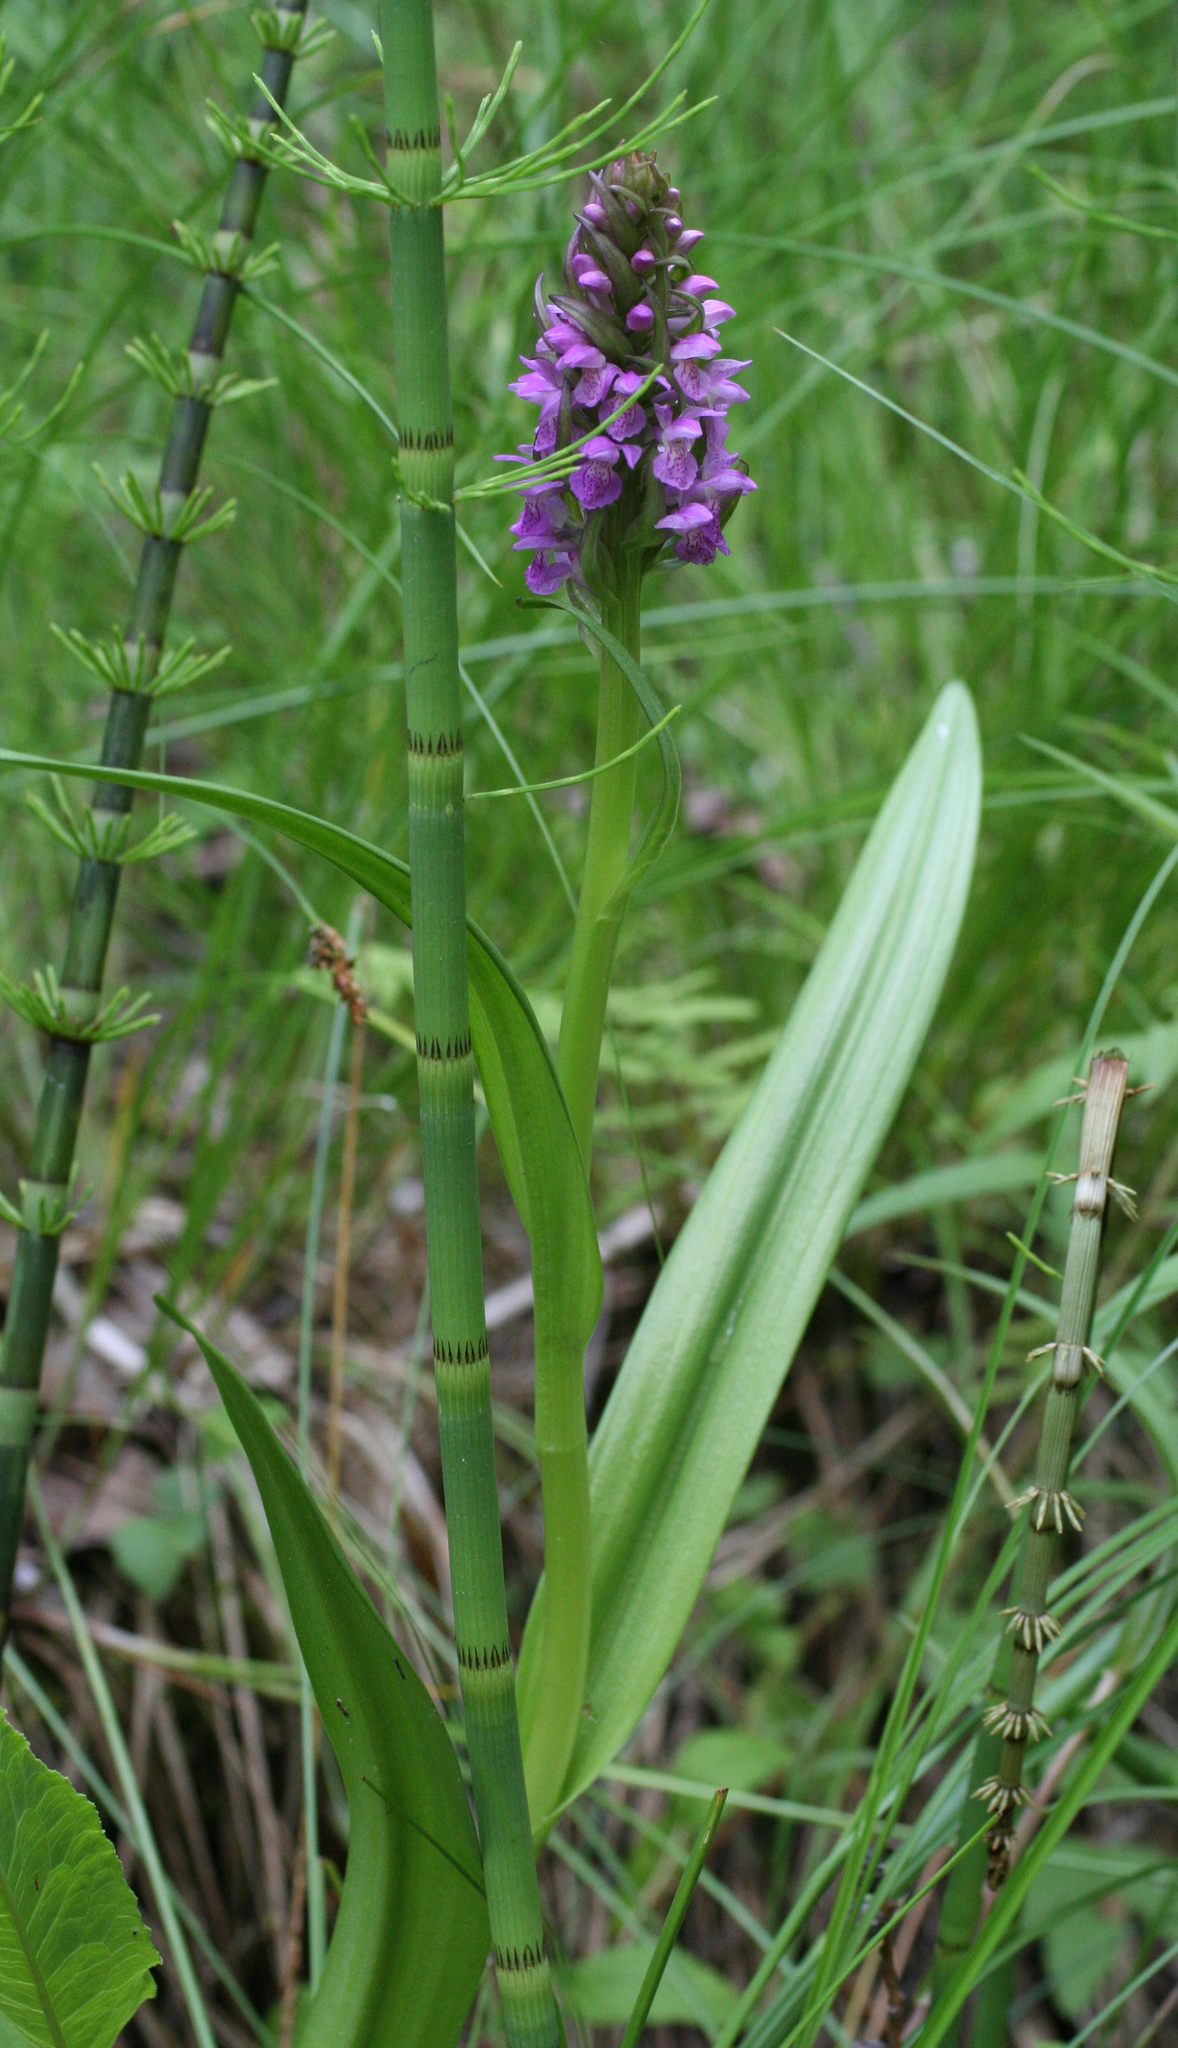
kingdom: Plantae
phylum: Tracheophyta
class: Liliopsida
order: Asparagales
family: Orchidaceae
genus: Dactylorhiza
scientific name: Dactylorhiza incarnata
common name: Early marsh-orchid
